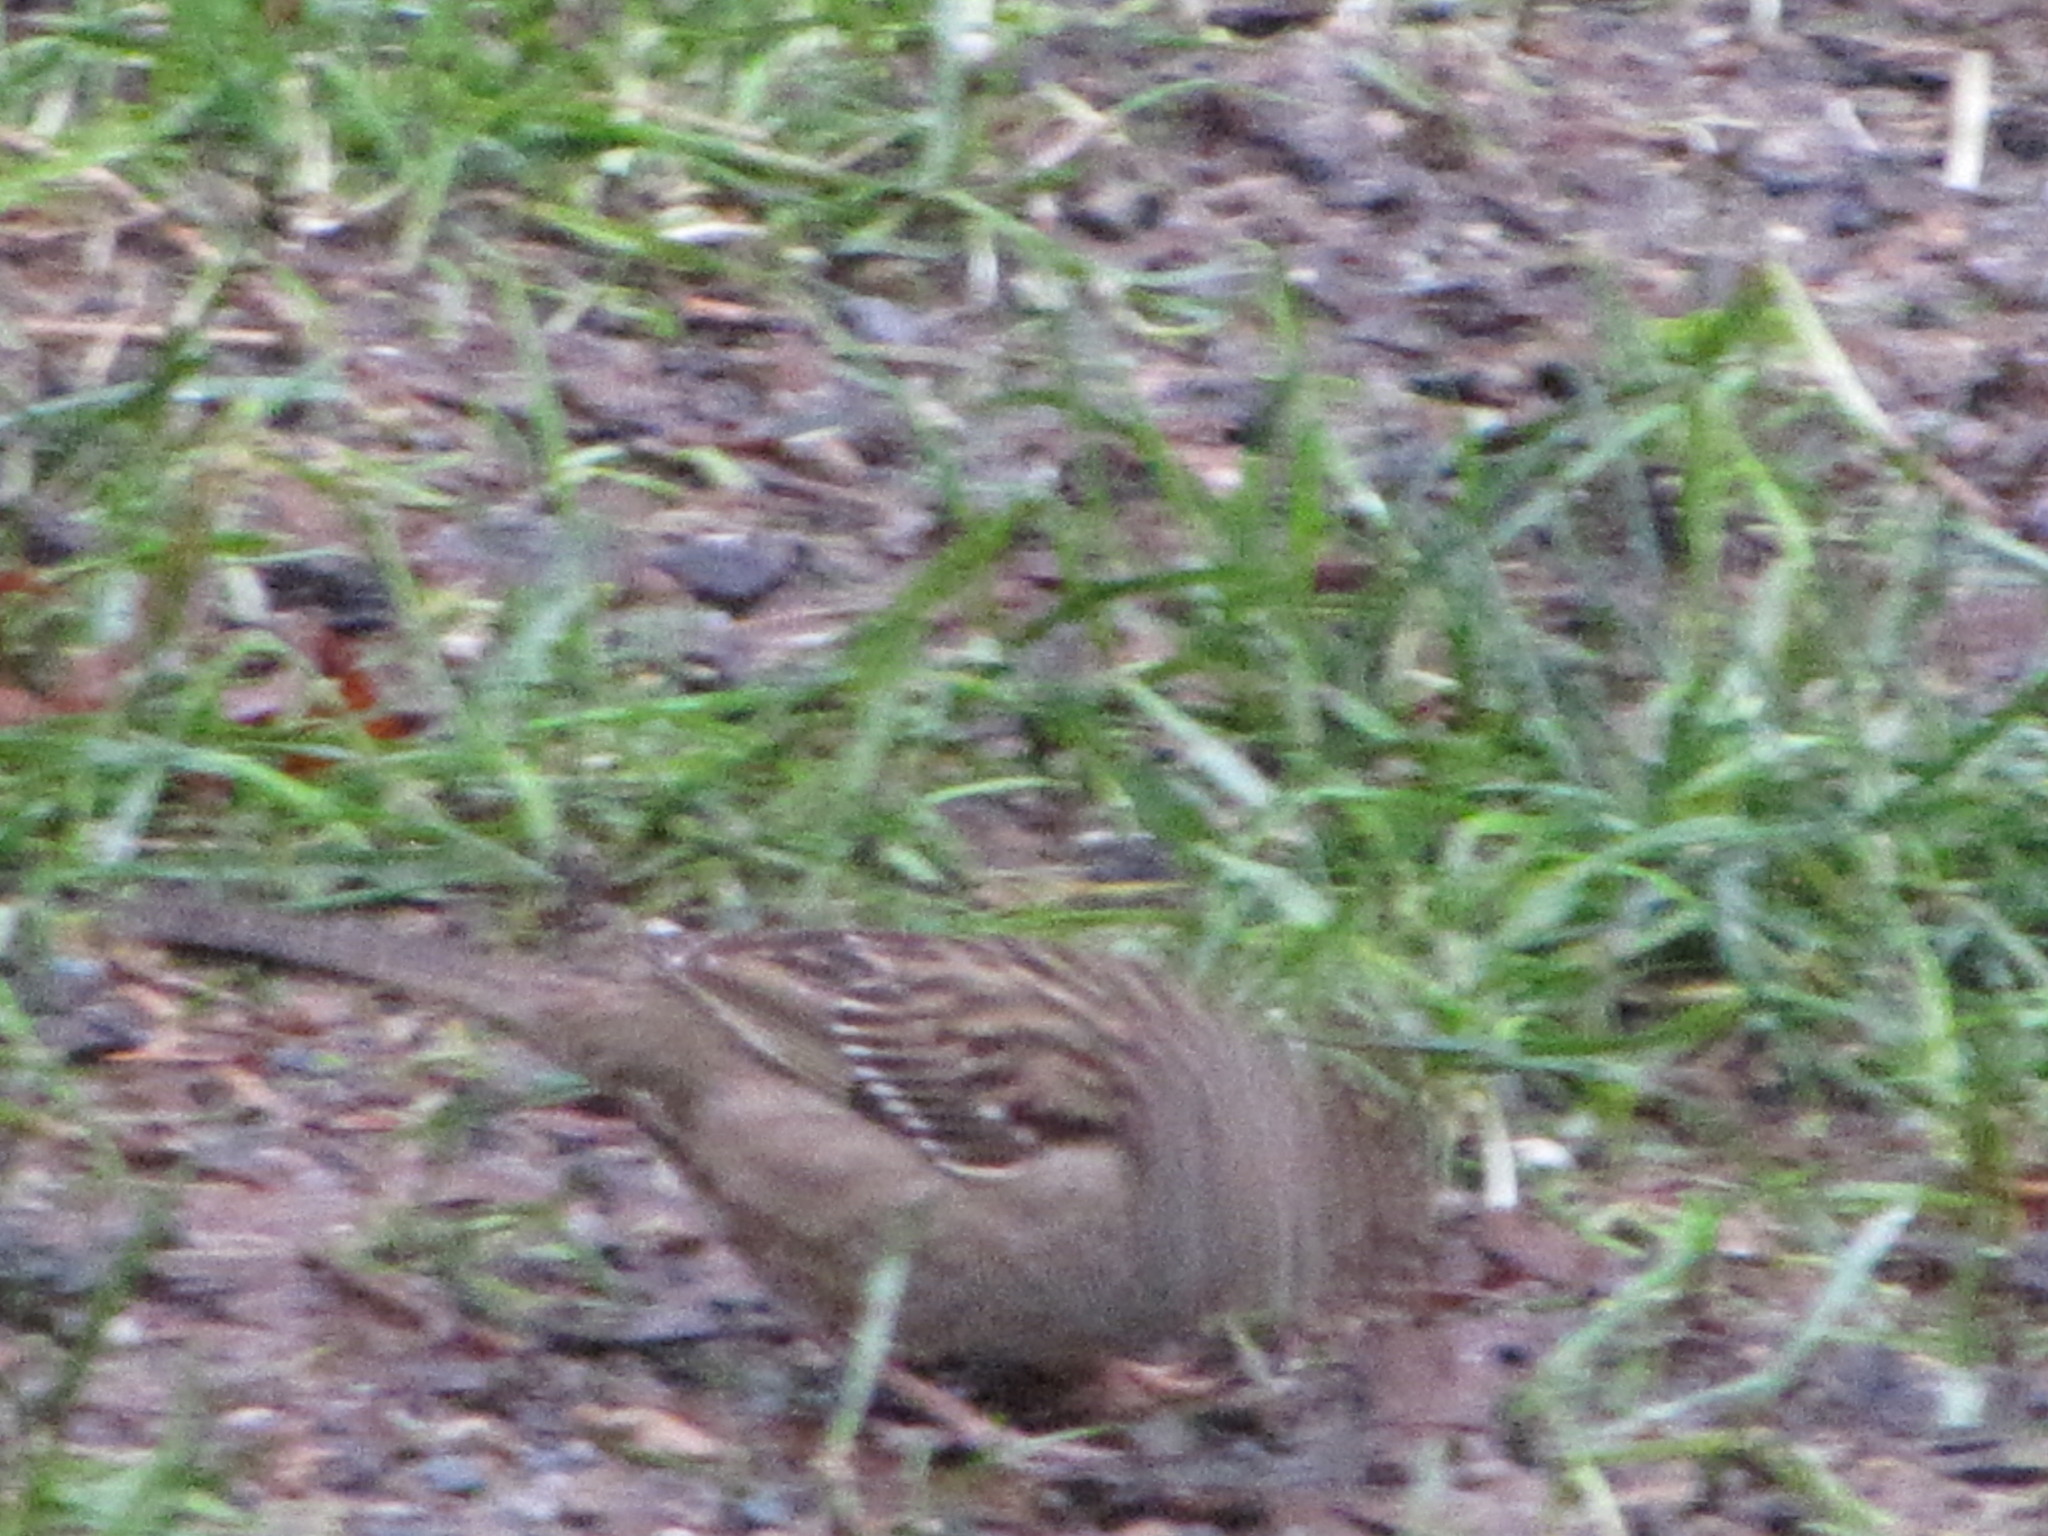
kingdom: Animalia
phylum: Chordata
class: Aves
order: Passeriformes
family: Passerellidae
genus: Zonotrichia
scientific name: Zonotrichia atricapilla
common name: Golden-crowned sparrow
